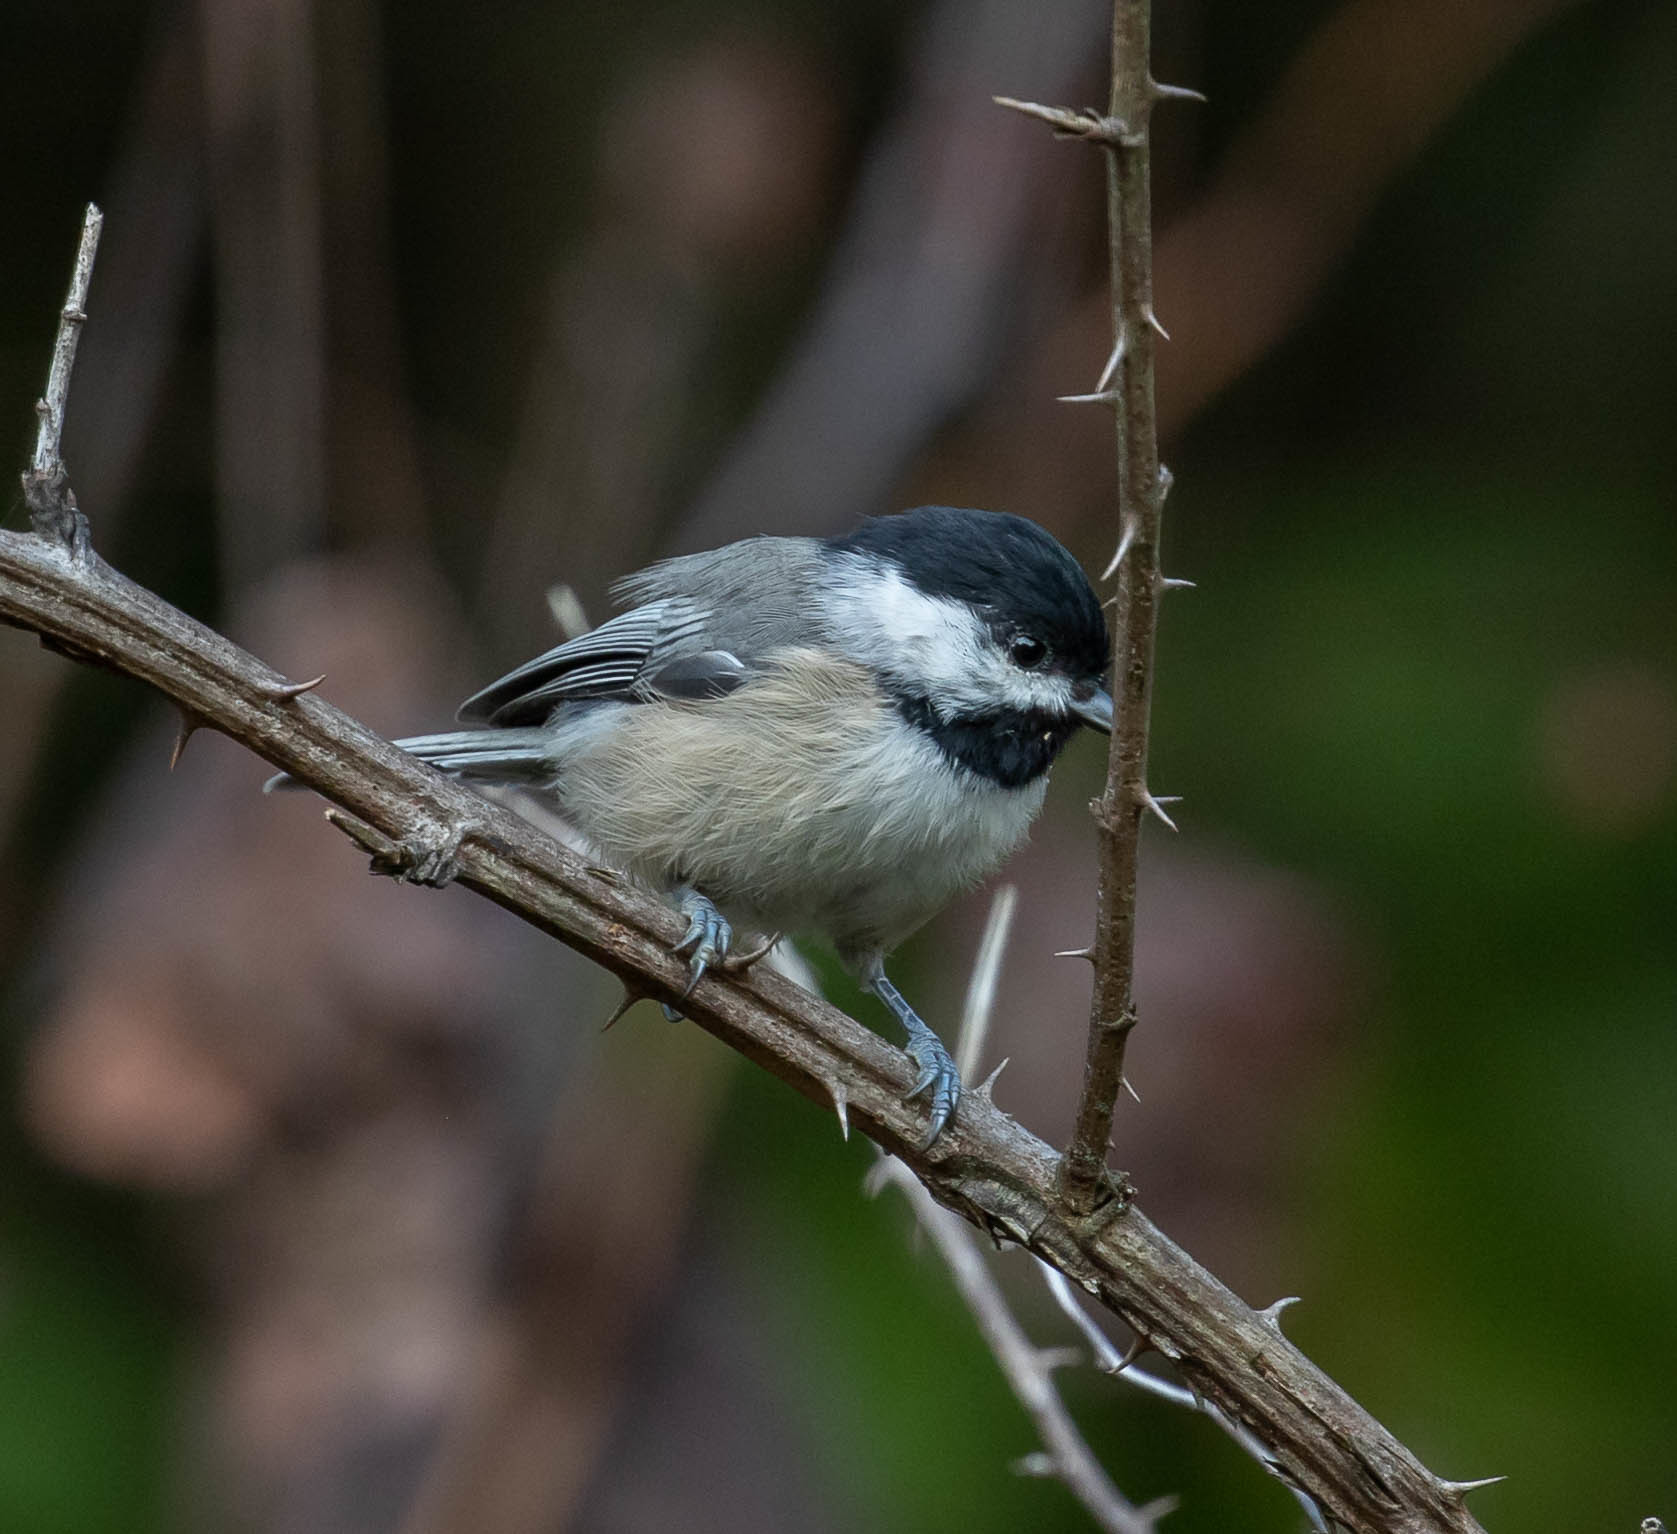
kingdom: Animalia
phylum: Chordata
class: Aves
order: Passeriformes
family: Paridae
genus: Poecile
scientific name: Poecile atricapillus
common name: Black-capped chickadee
